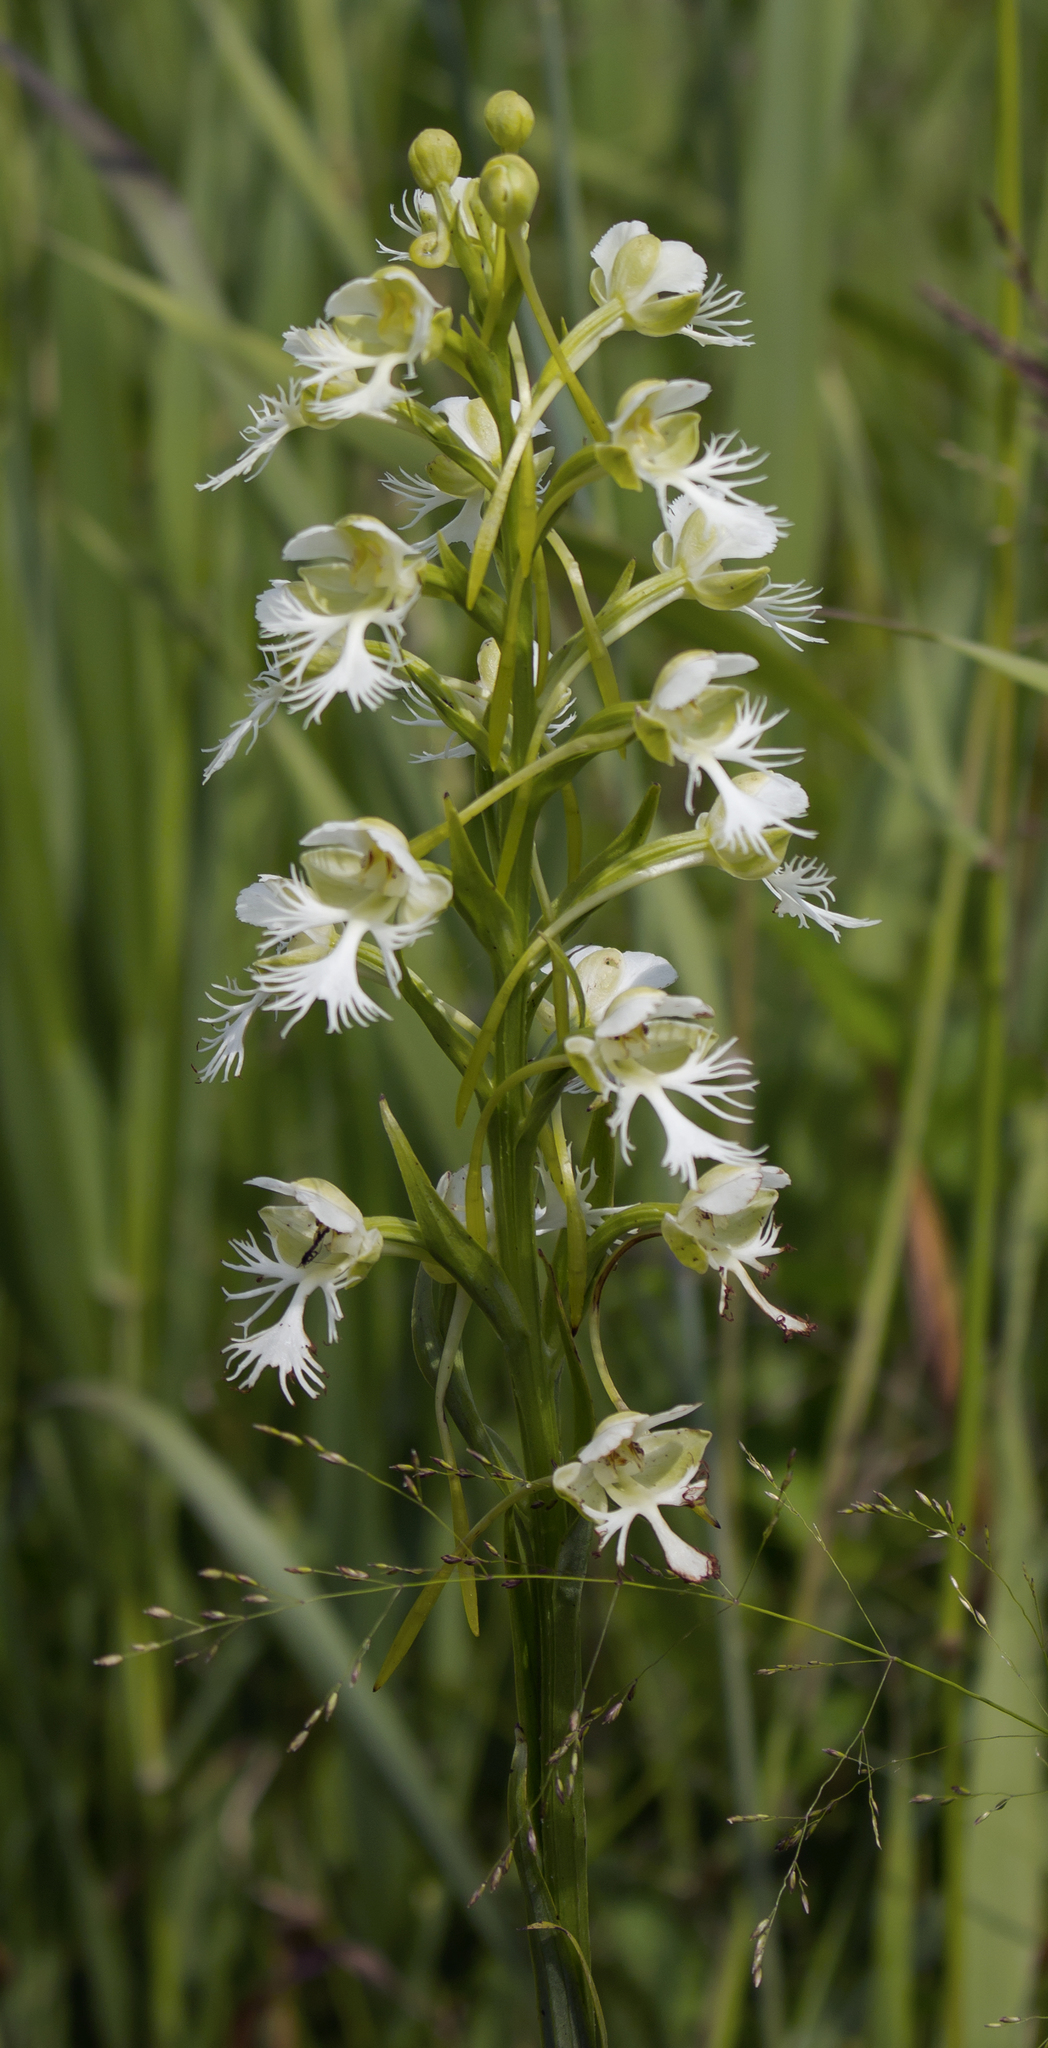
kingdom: Plantae
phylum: Tracheophyta
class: Liliopsida
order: Asparagales
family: Orchidaceae
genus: Platanthera
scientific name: Platanthera leucophaea
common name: Eastern prairie white-fringed orchid
